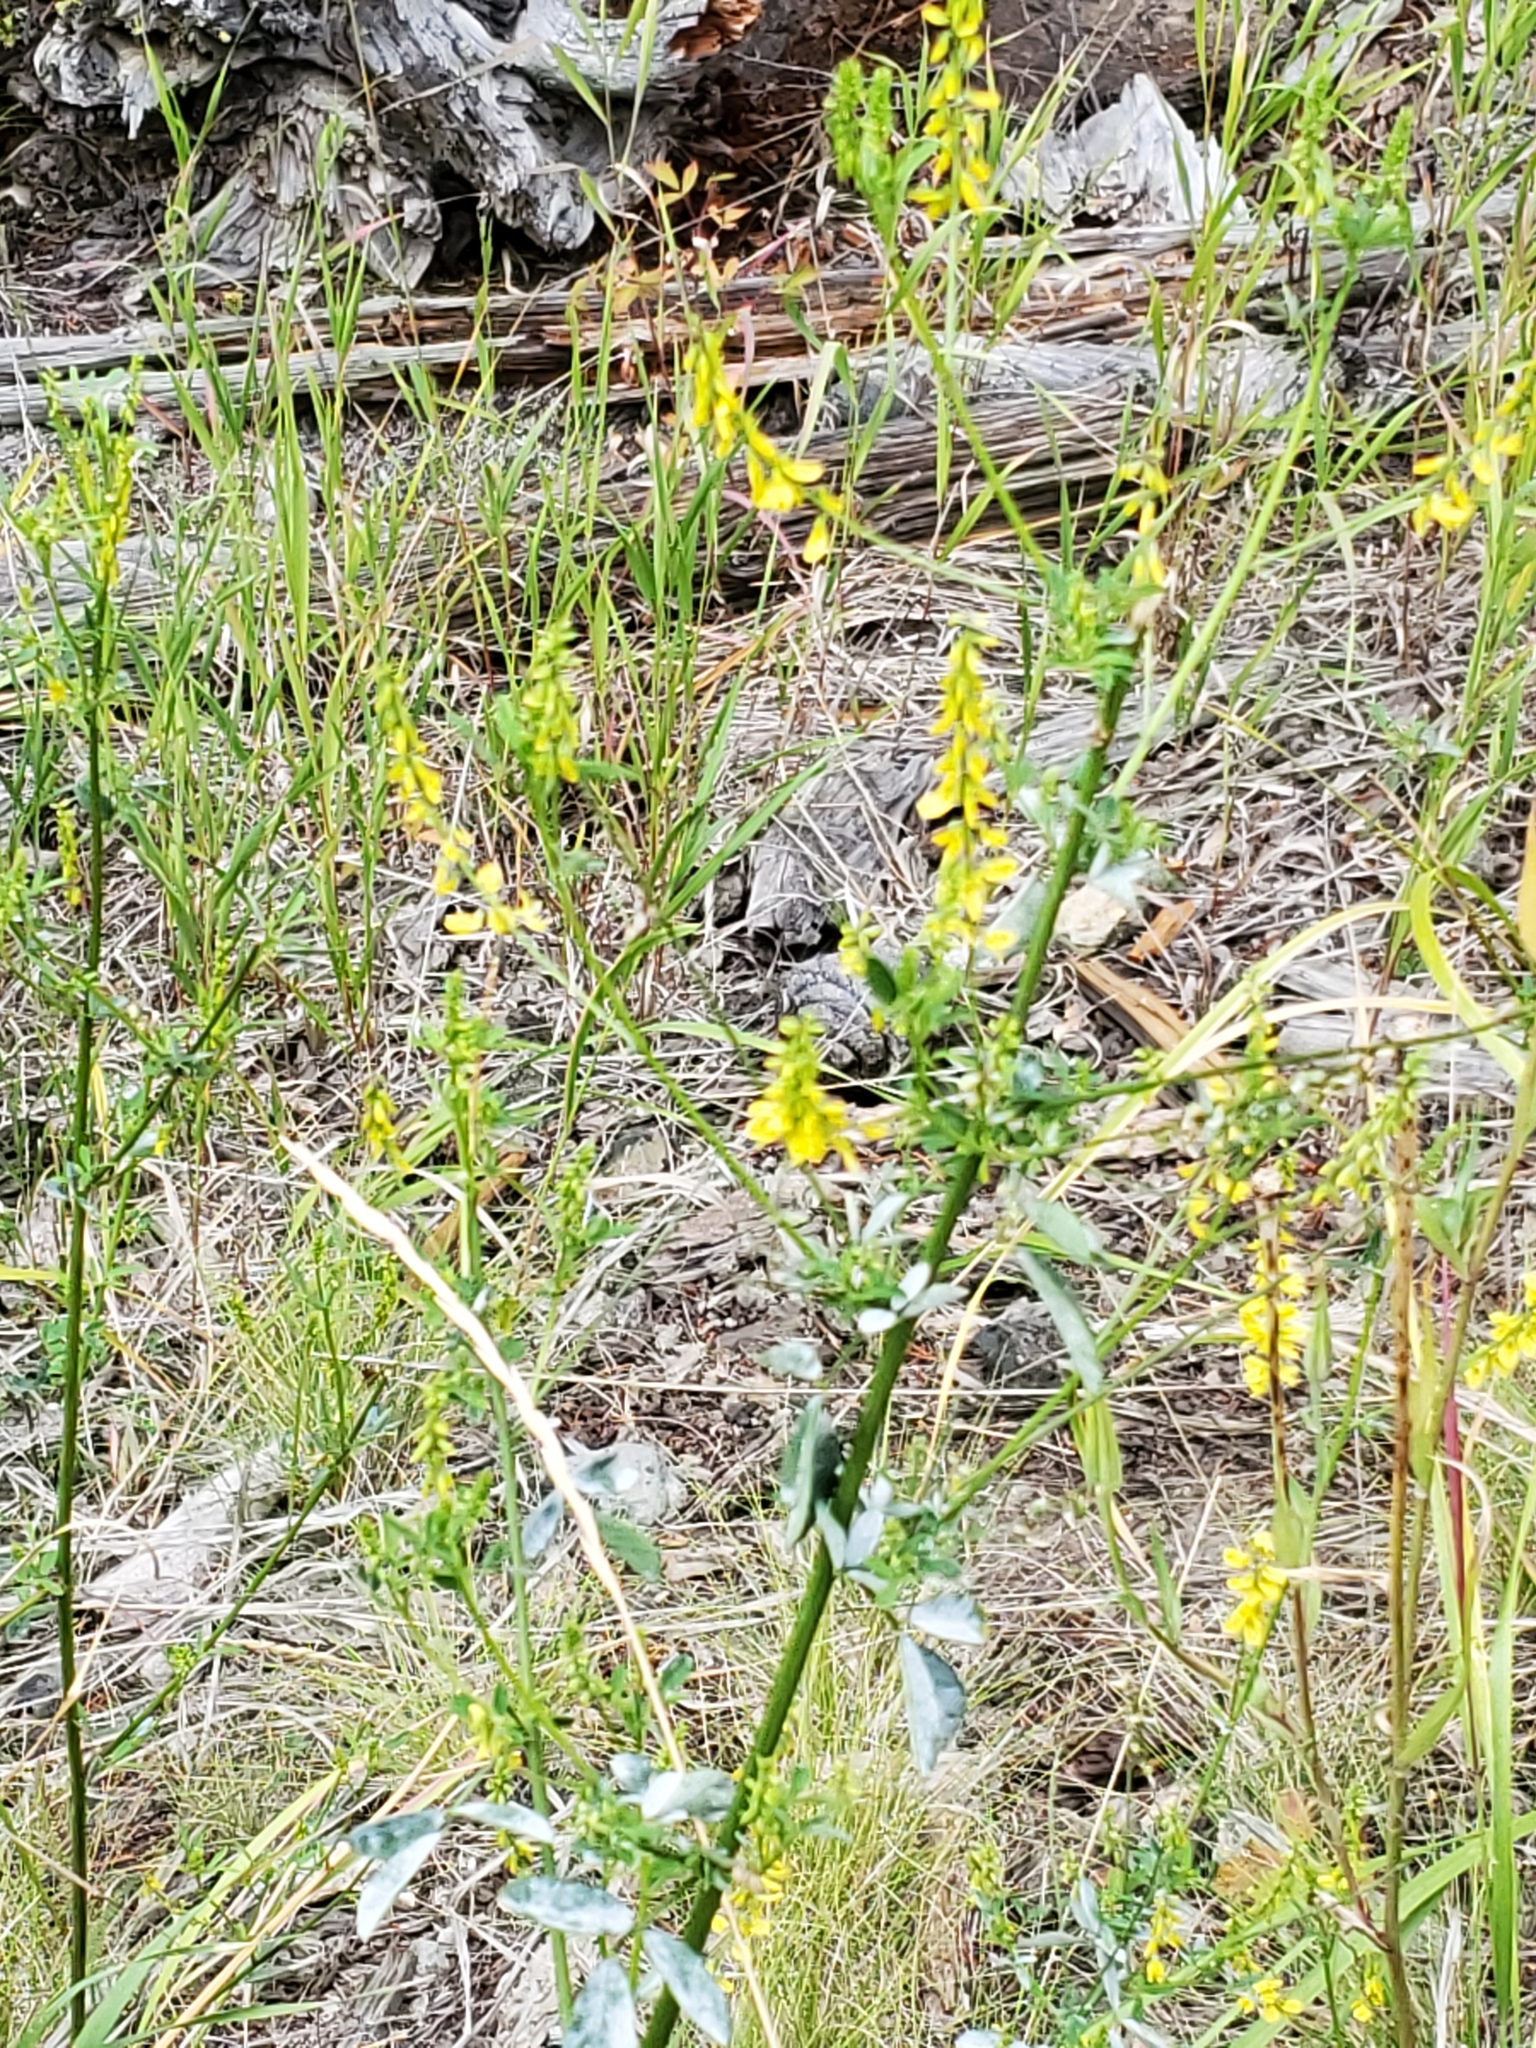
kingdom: Plantae
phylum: Tracheophyta
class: Magnoliopsida
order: Fabales
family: Fabaceae
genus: Melilotus
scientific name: Melilotus officinalis
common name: Sweetclover
